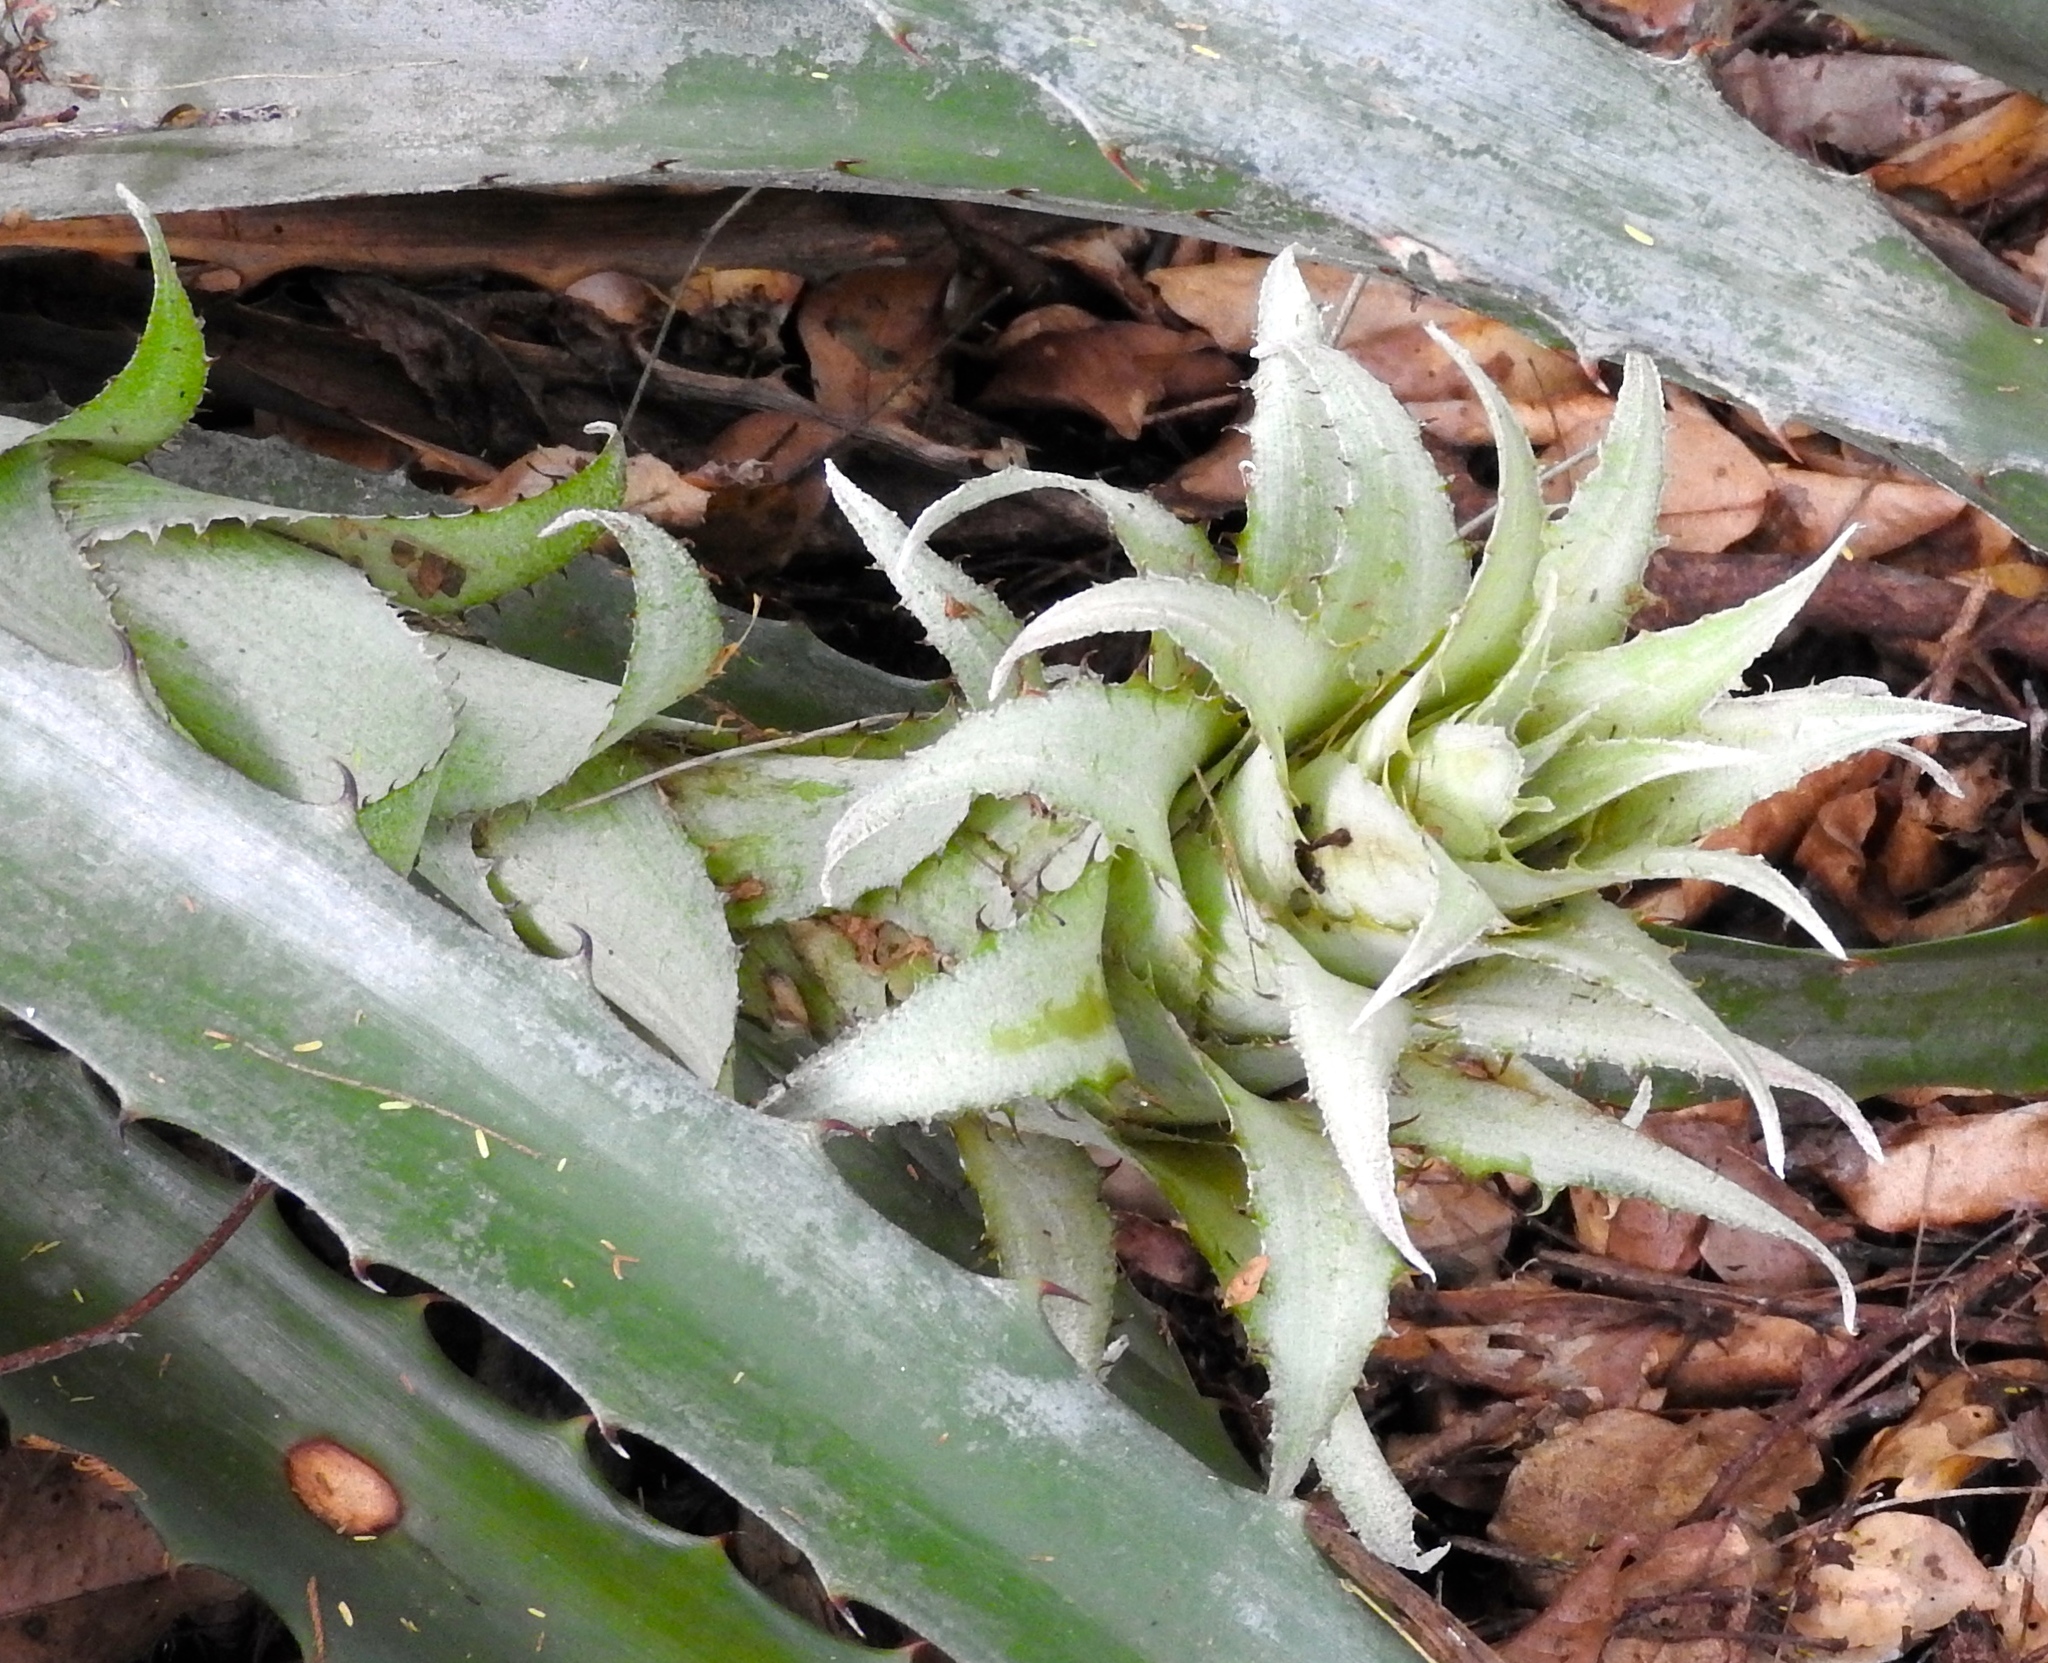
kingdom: Plantae
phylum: Tracheophyta
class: Liliopsida
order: Poales
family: Bromeliaceae
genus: Bromelia
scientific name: Bromelia pinguin
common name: Pinguin
